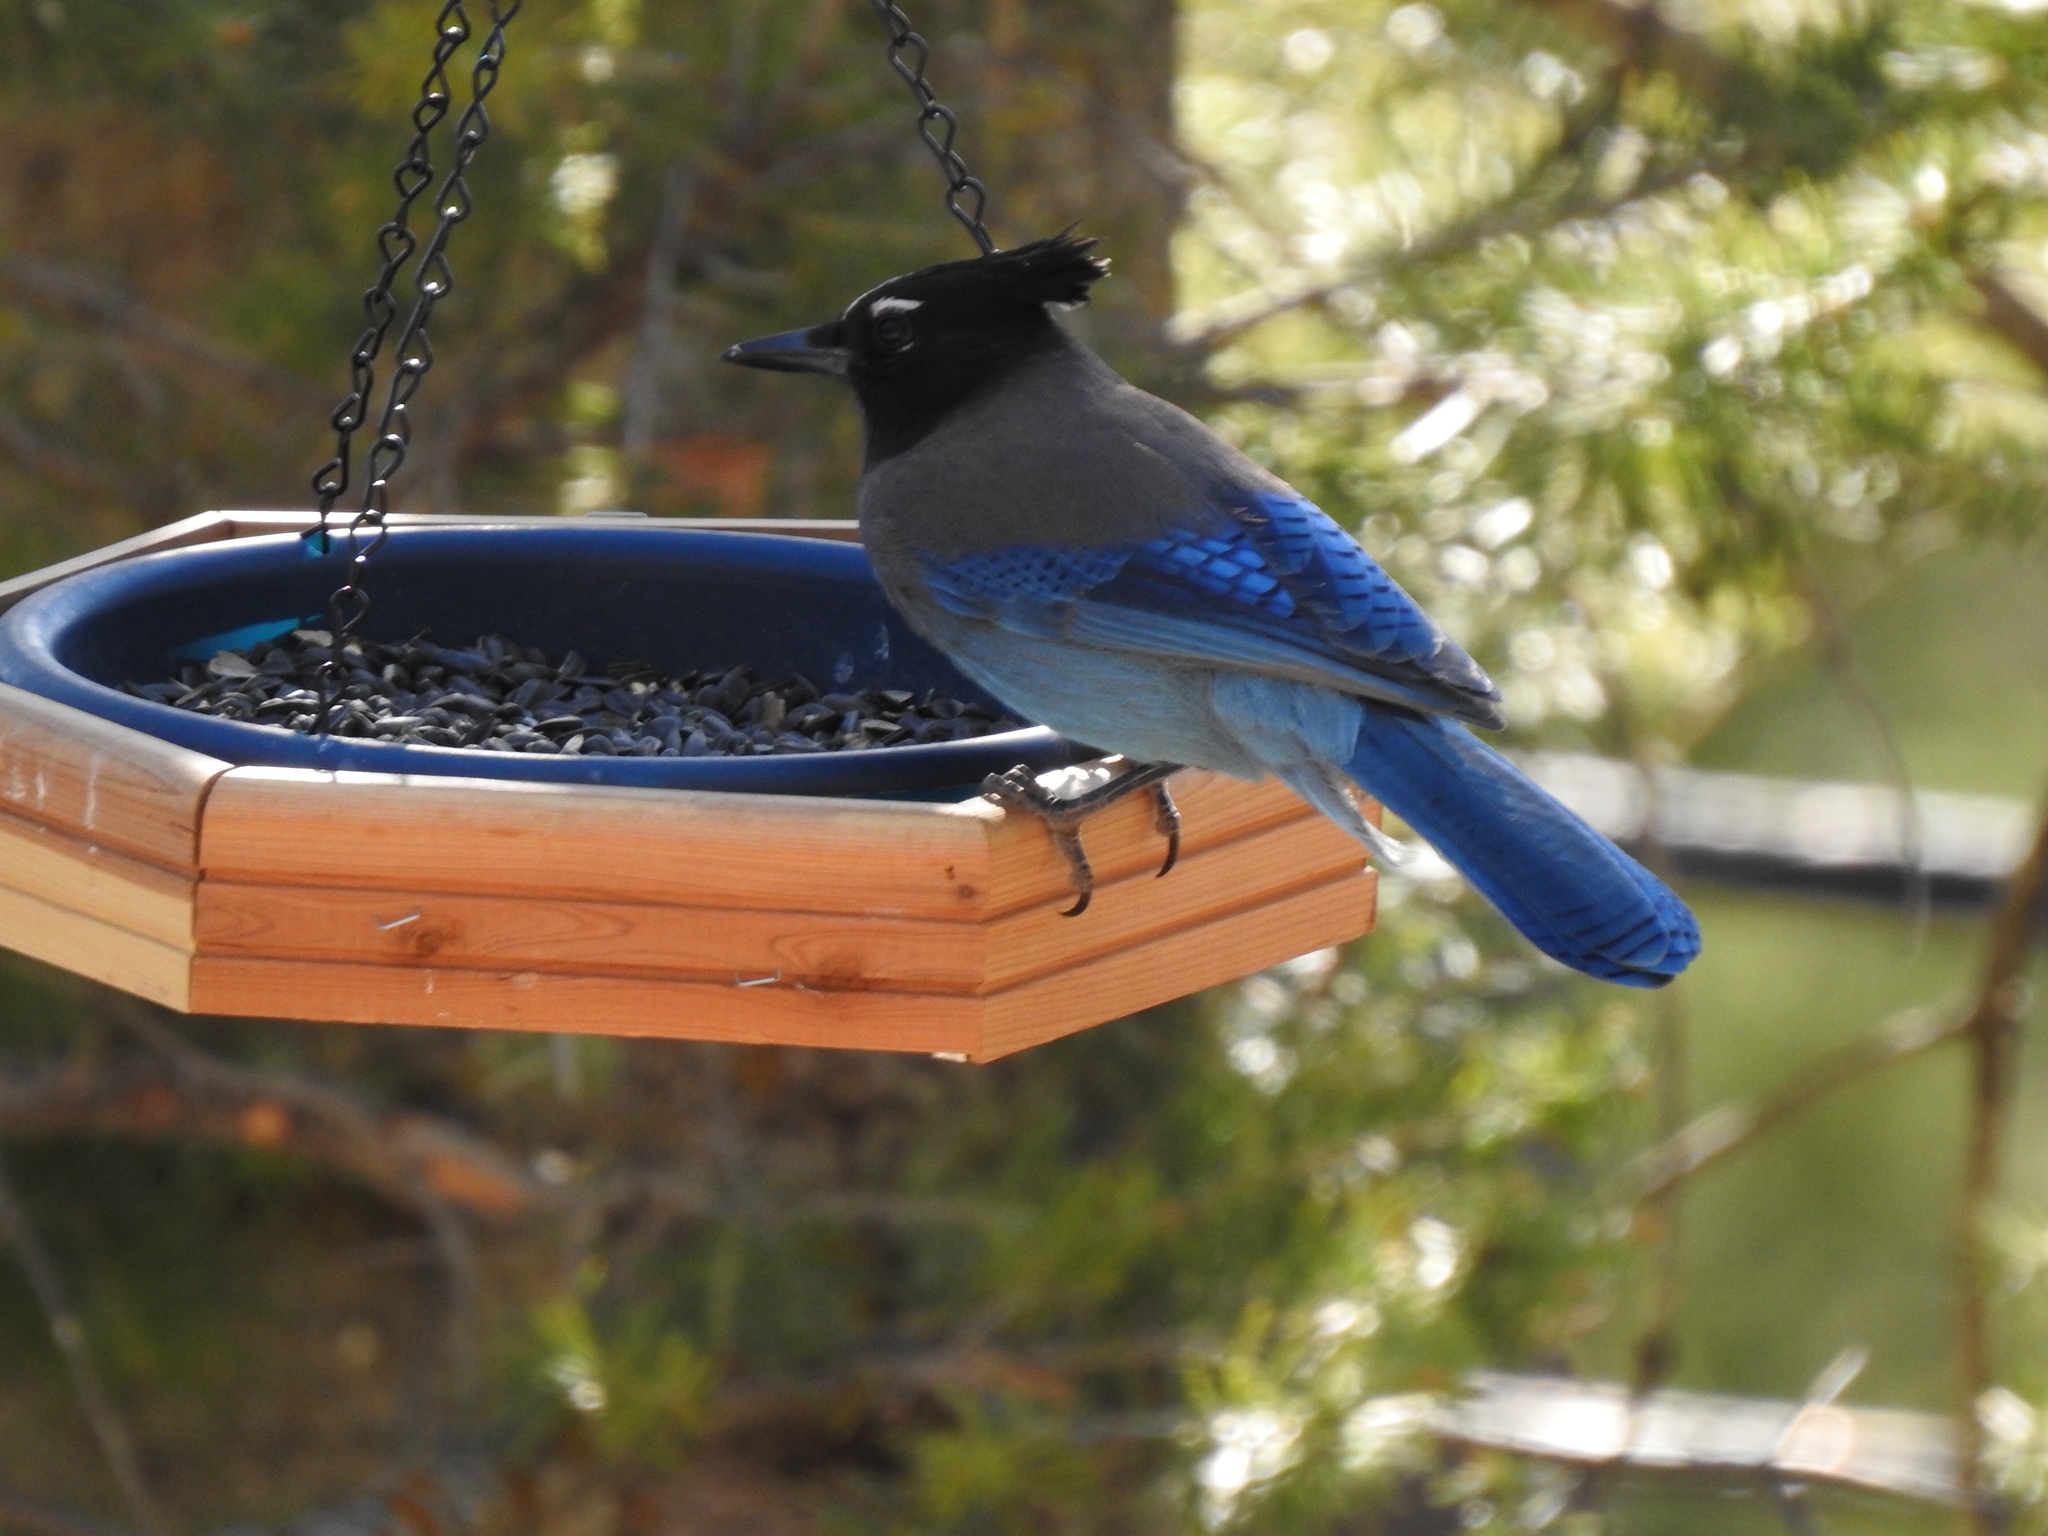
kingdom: Animalia
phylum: Chordata
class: Aves
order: Passeriformes
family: Corvidae
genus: Cyanocitta
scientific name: Cyanocitta stelleri
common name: Steller's jay
